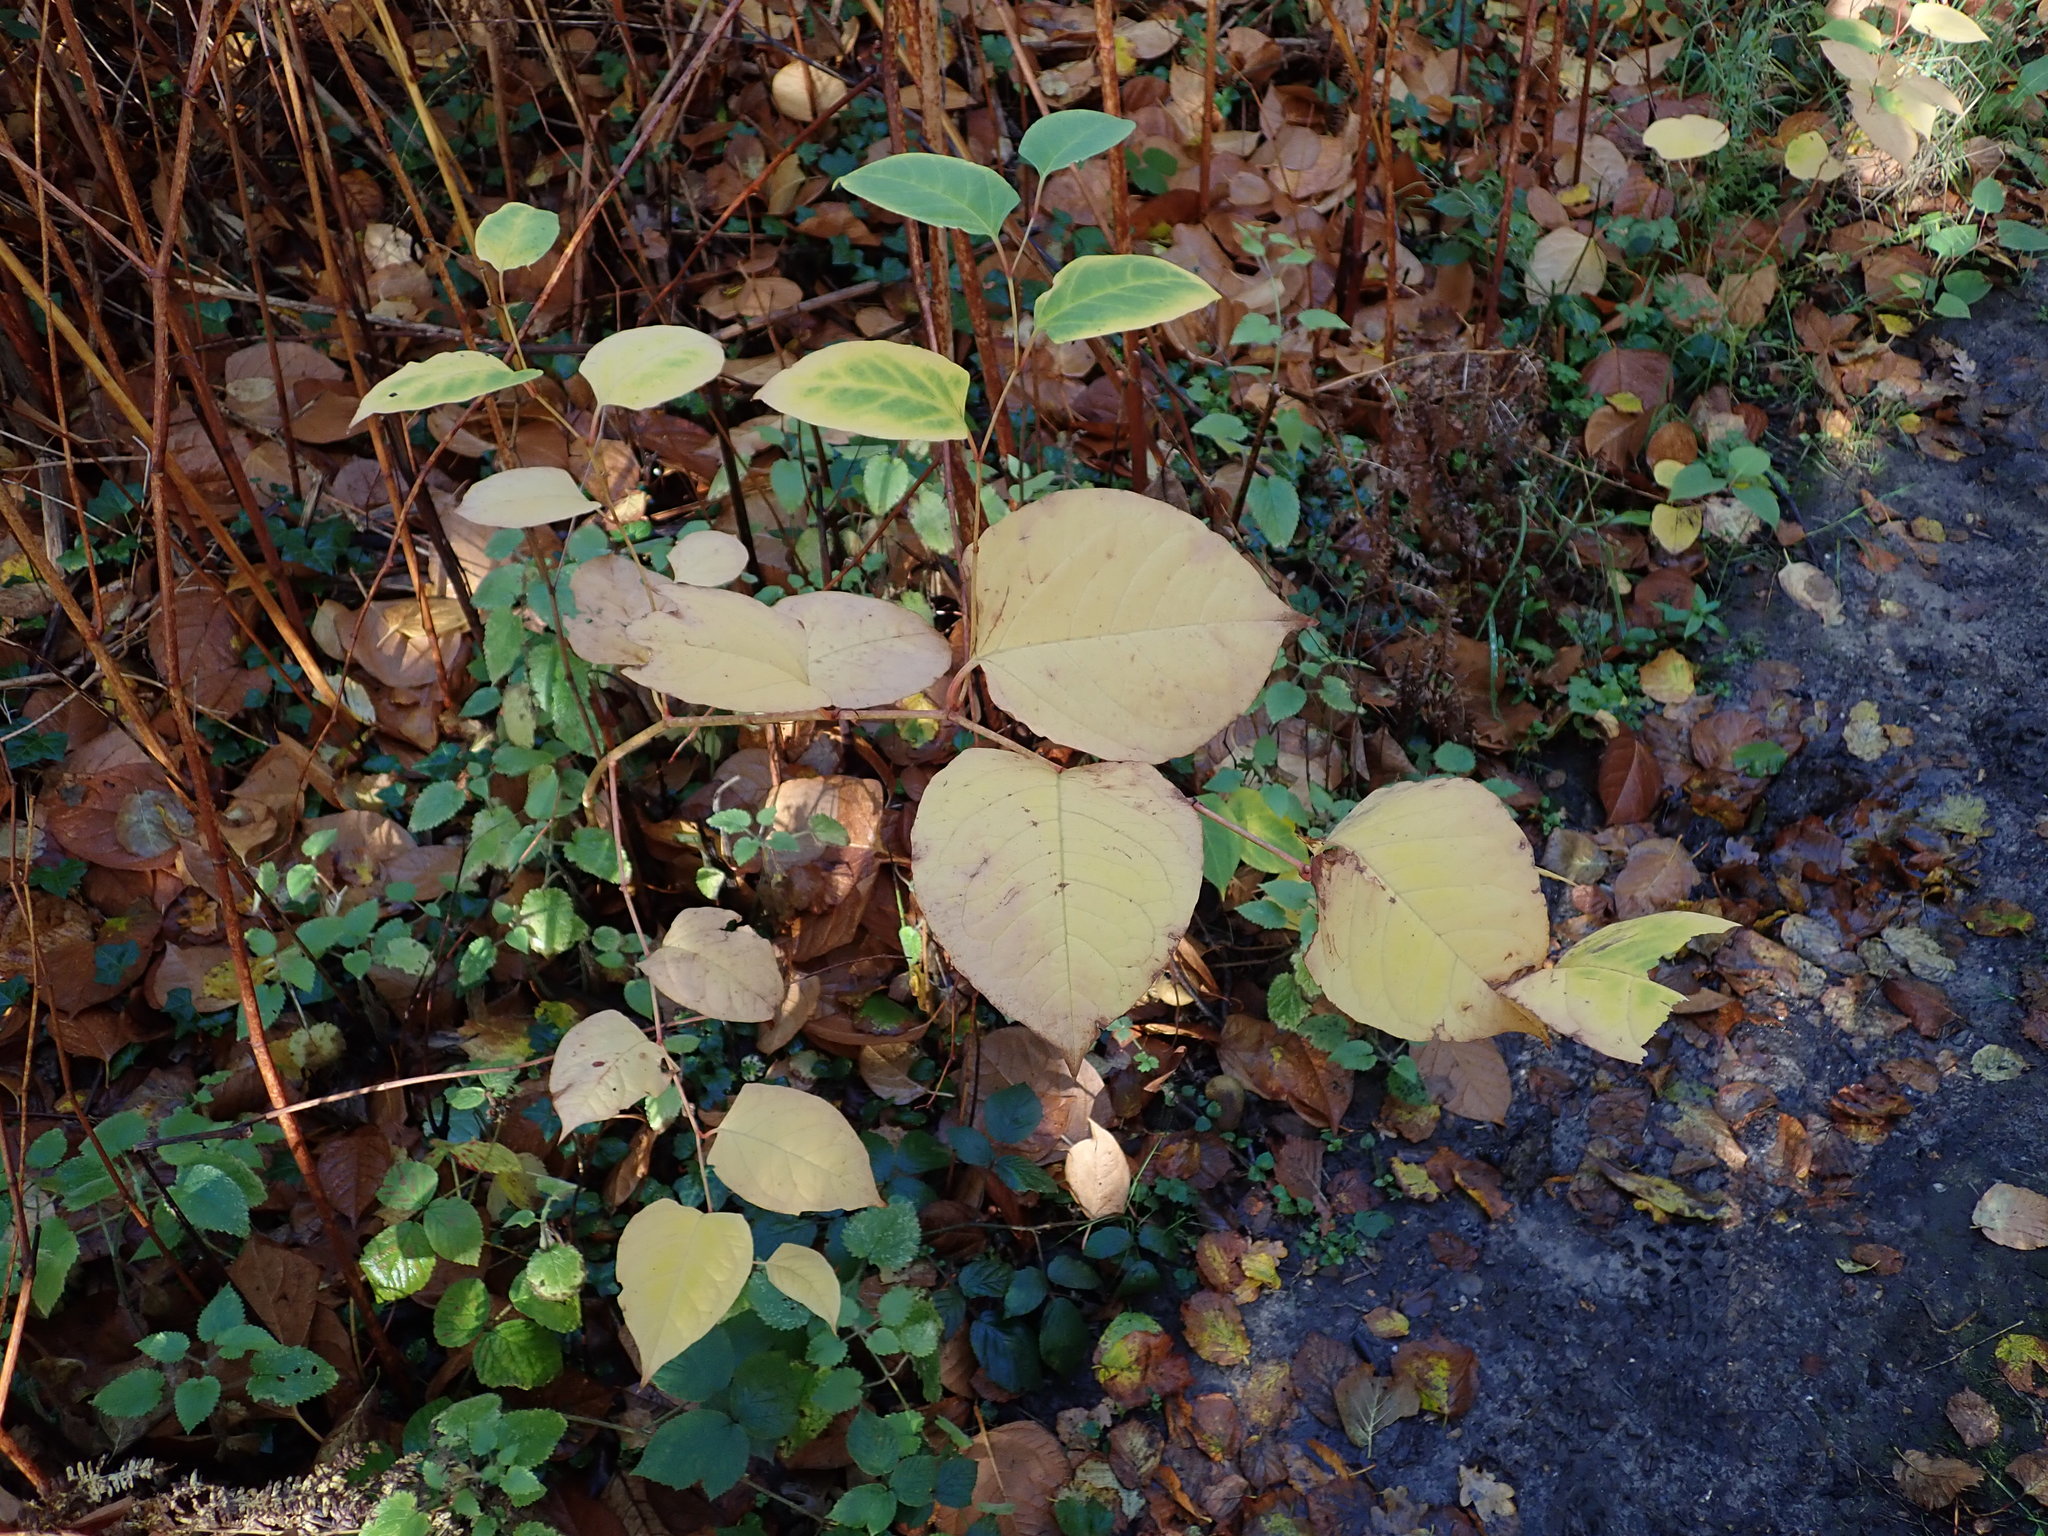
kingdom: Plantae
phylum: Tracheophyta
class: Magnoliopsida
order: Caryophyllales
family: Polygonaceae
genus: Reynoutria
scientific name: Reynoutria japonica
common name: Japanese knotweed
